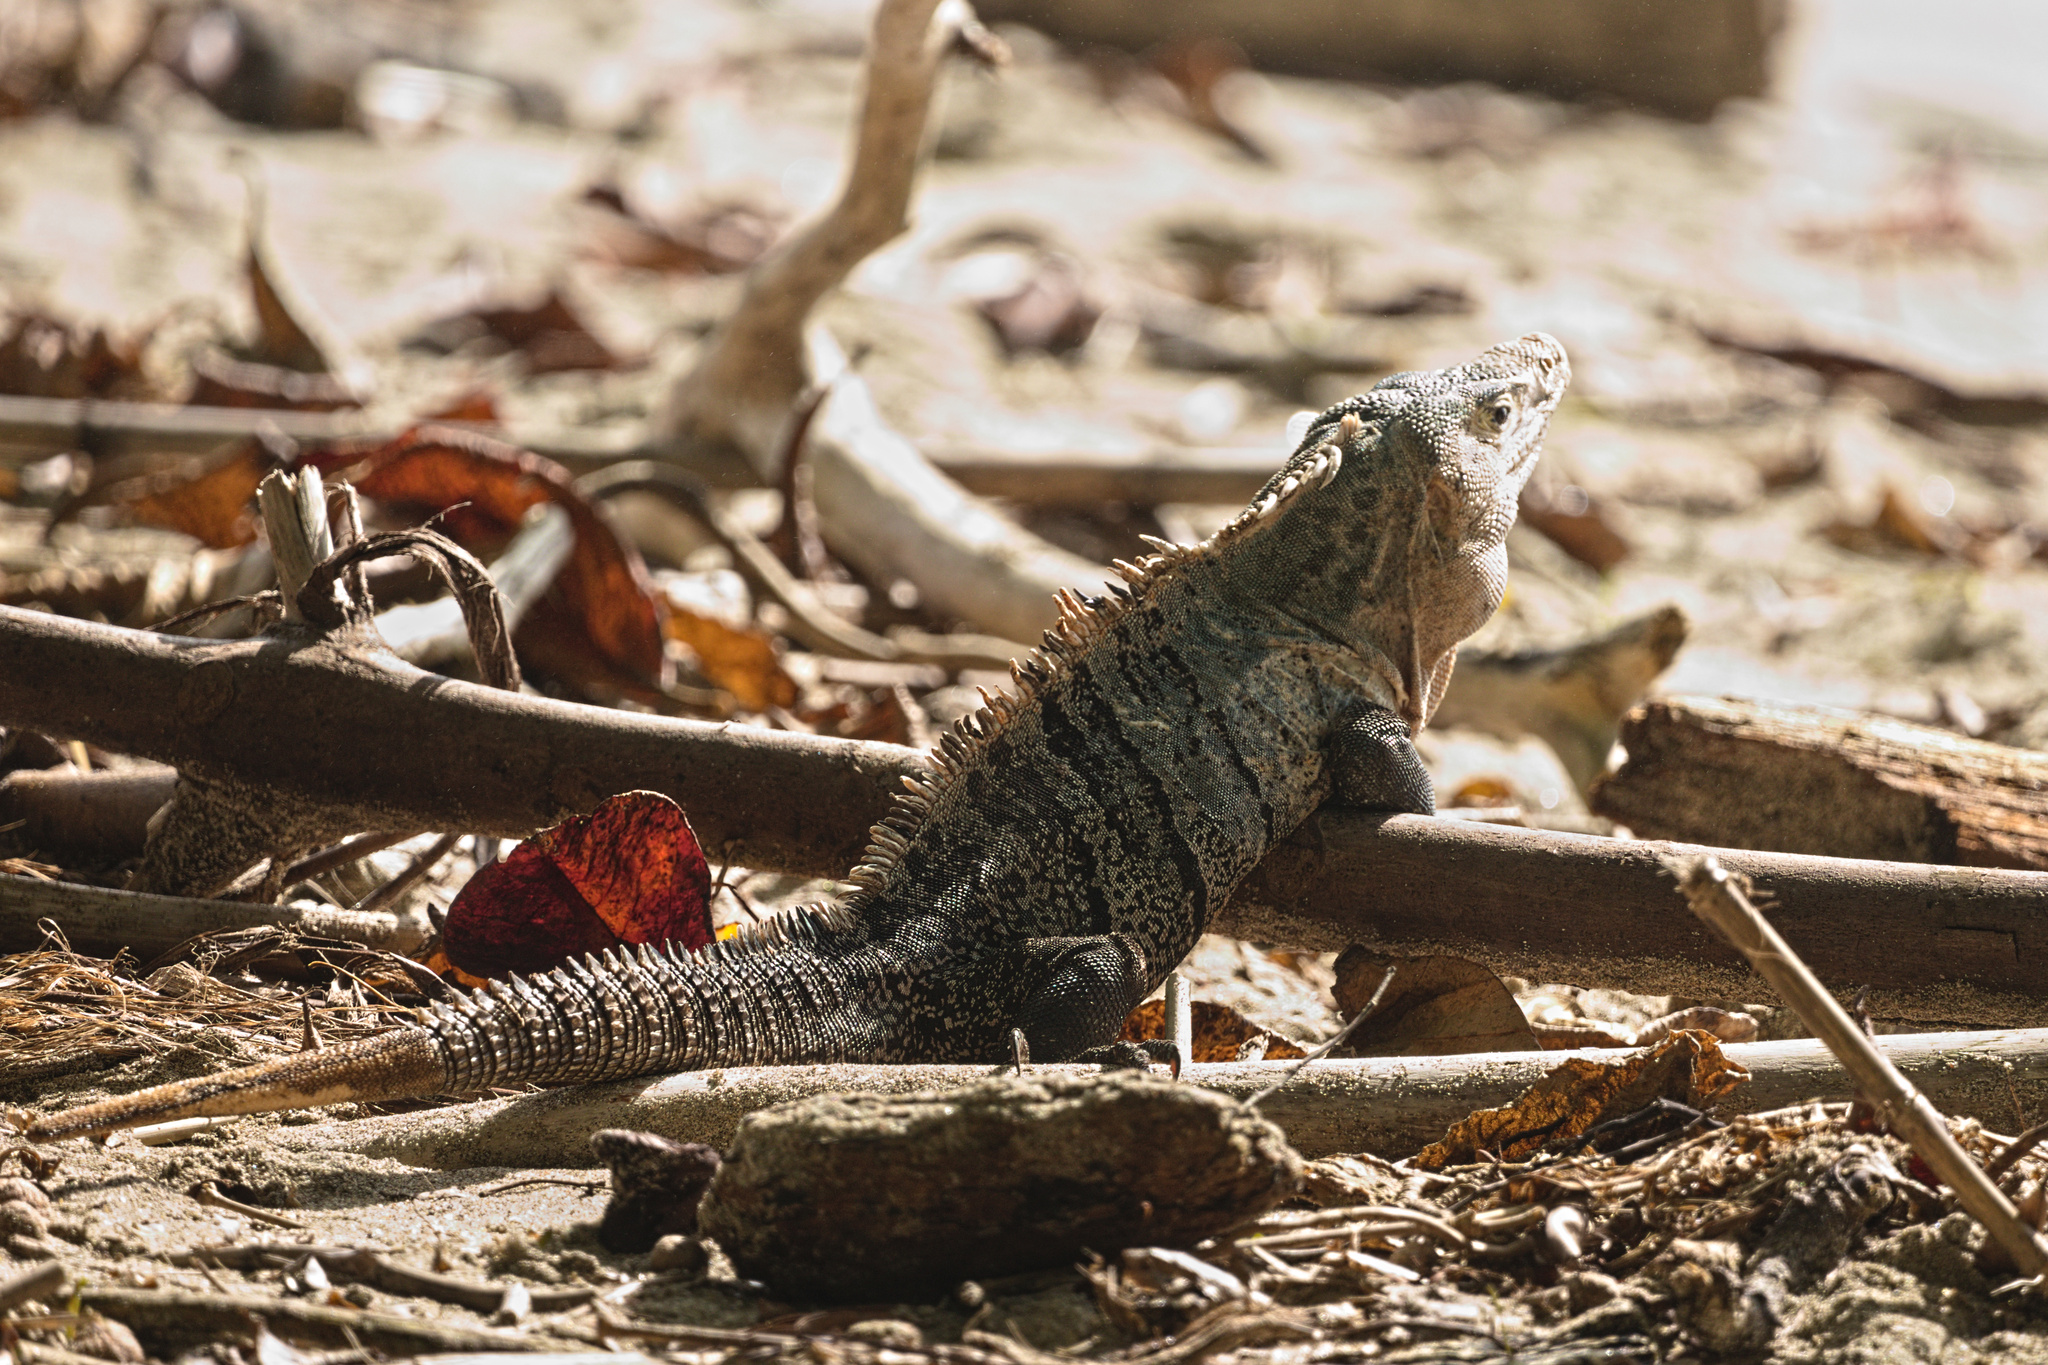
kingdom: Animalia
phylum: Chordata
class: Squamata
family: Iguanidae
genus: Ctenosaura
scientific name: Ctenosaura similis
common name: Black spiny-tailed iguana
